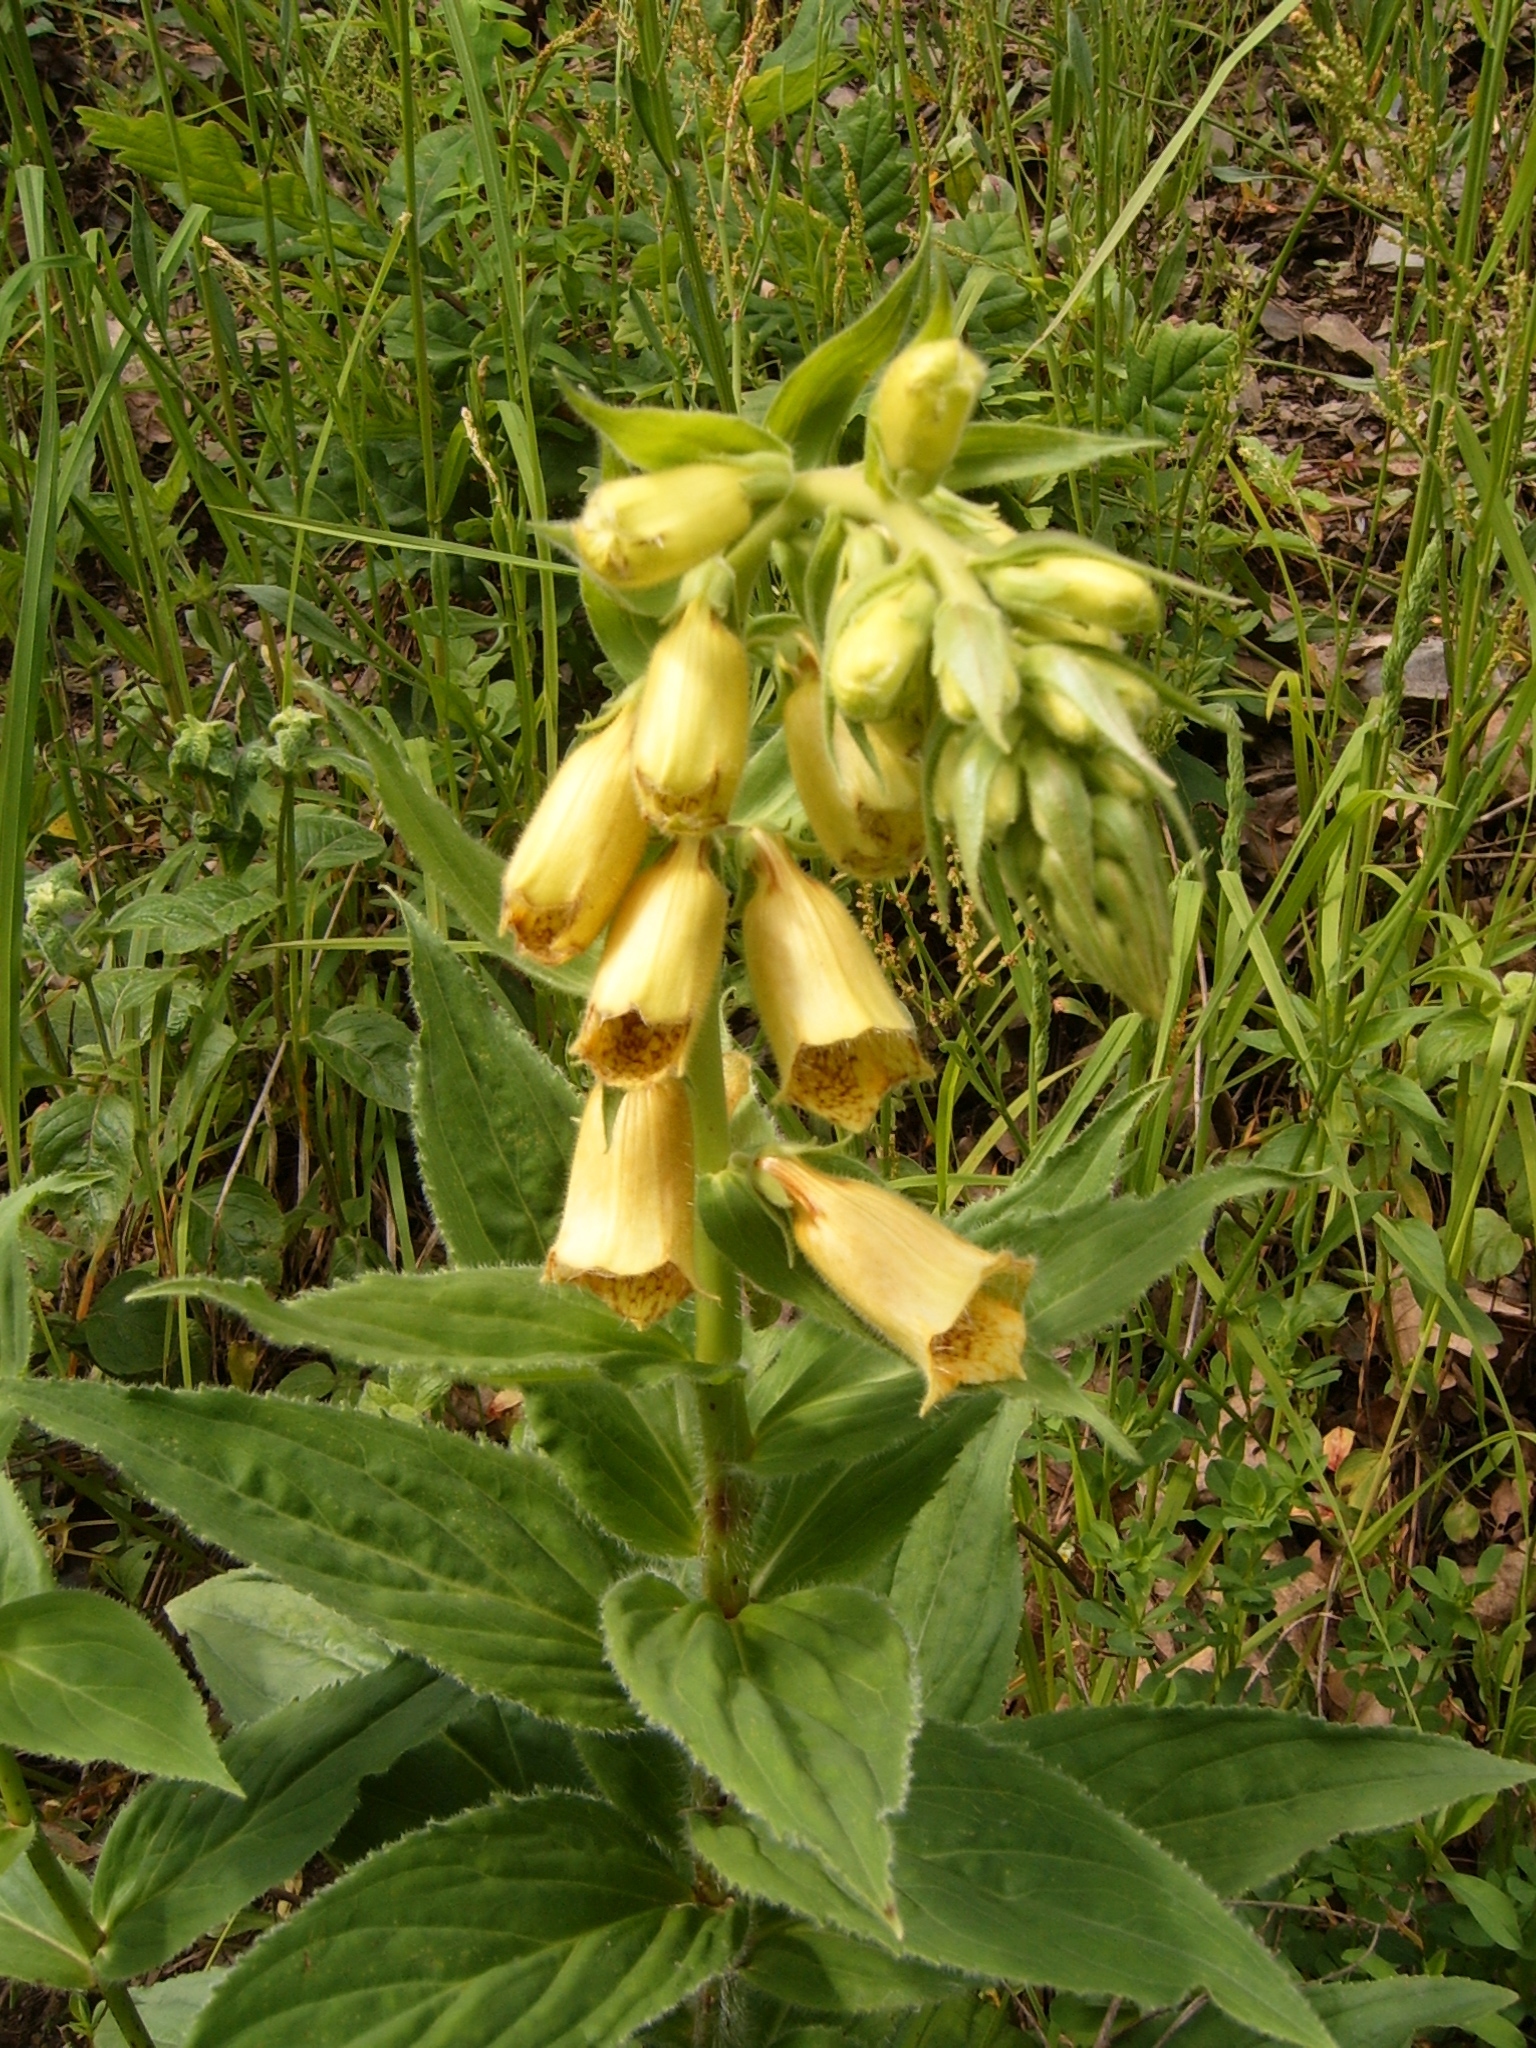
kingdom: Plantae
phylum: Tracheophyta
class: Magnoliopsida
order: Lamiales
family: Plantaginaceae
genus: Digitalis
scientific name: Digitalis grandiflora
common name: Yellow foxglove
